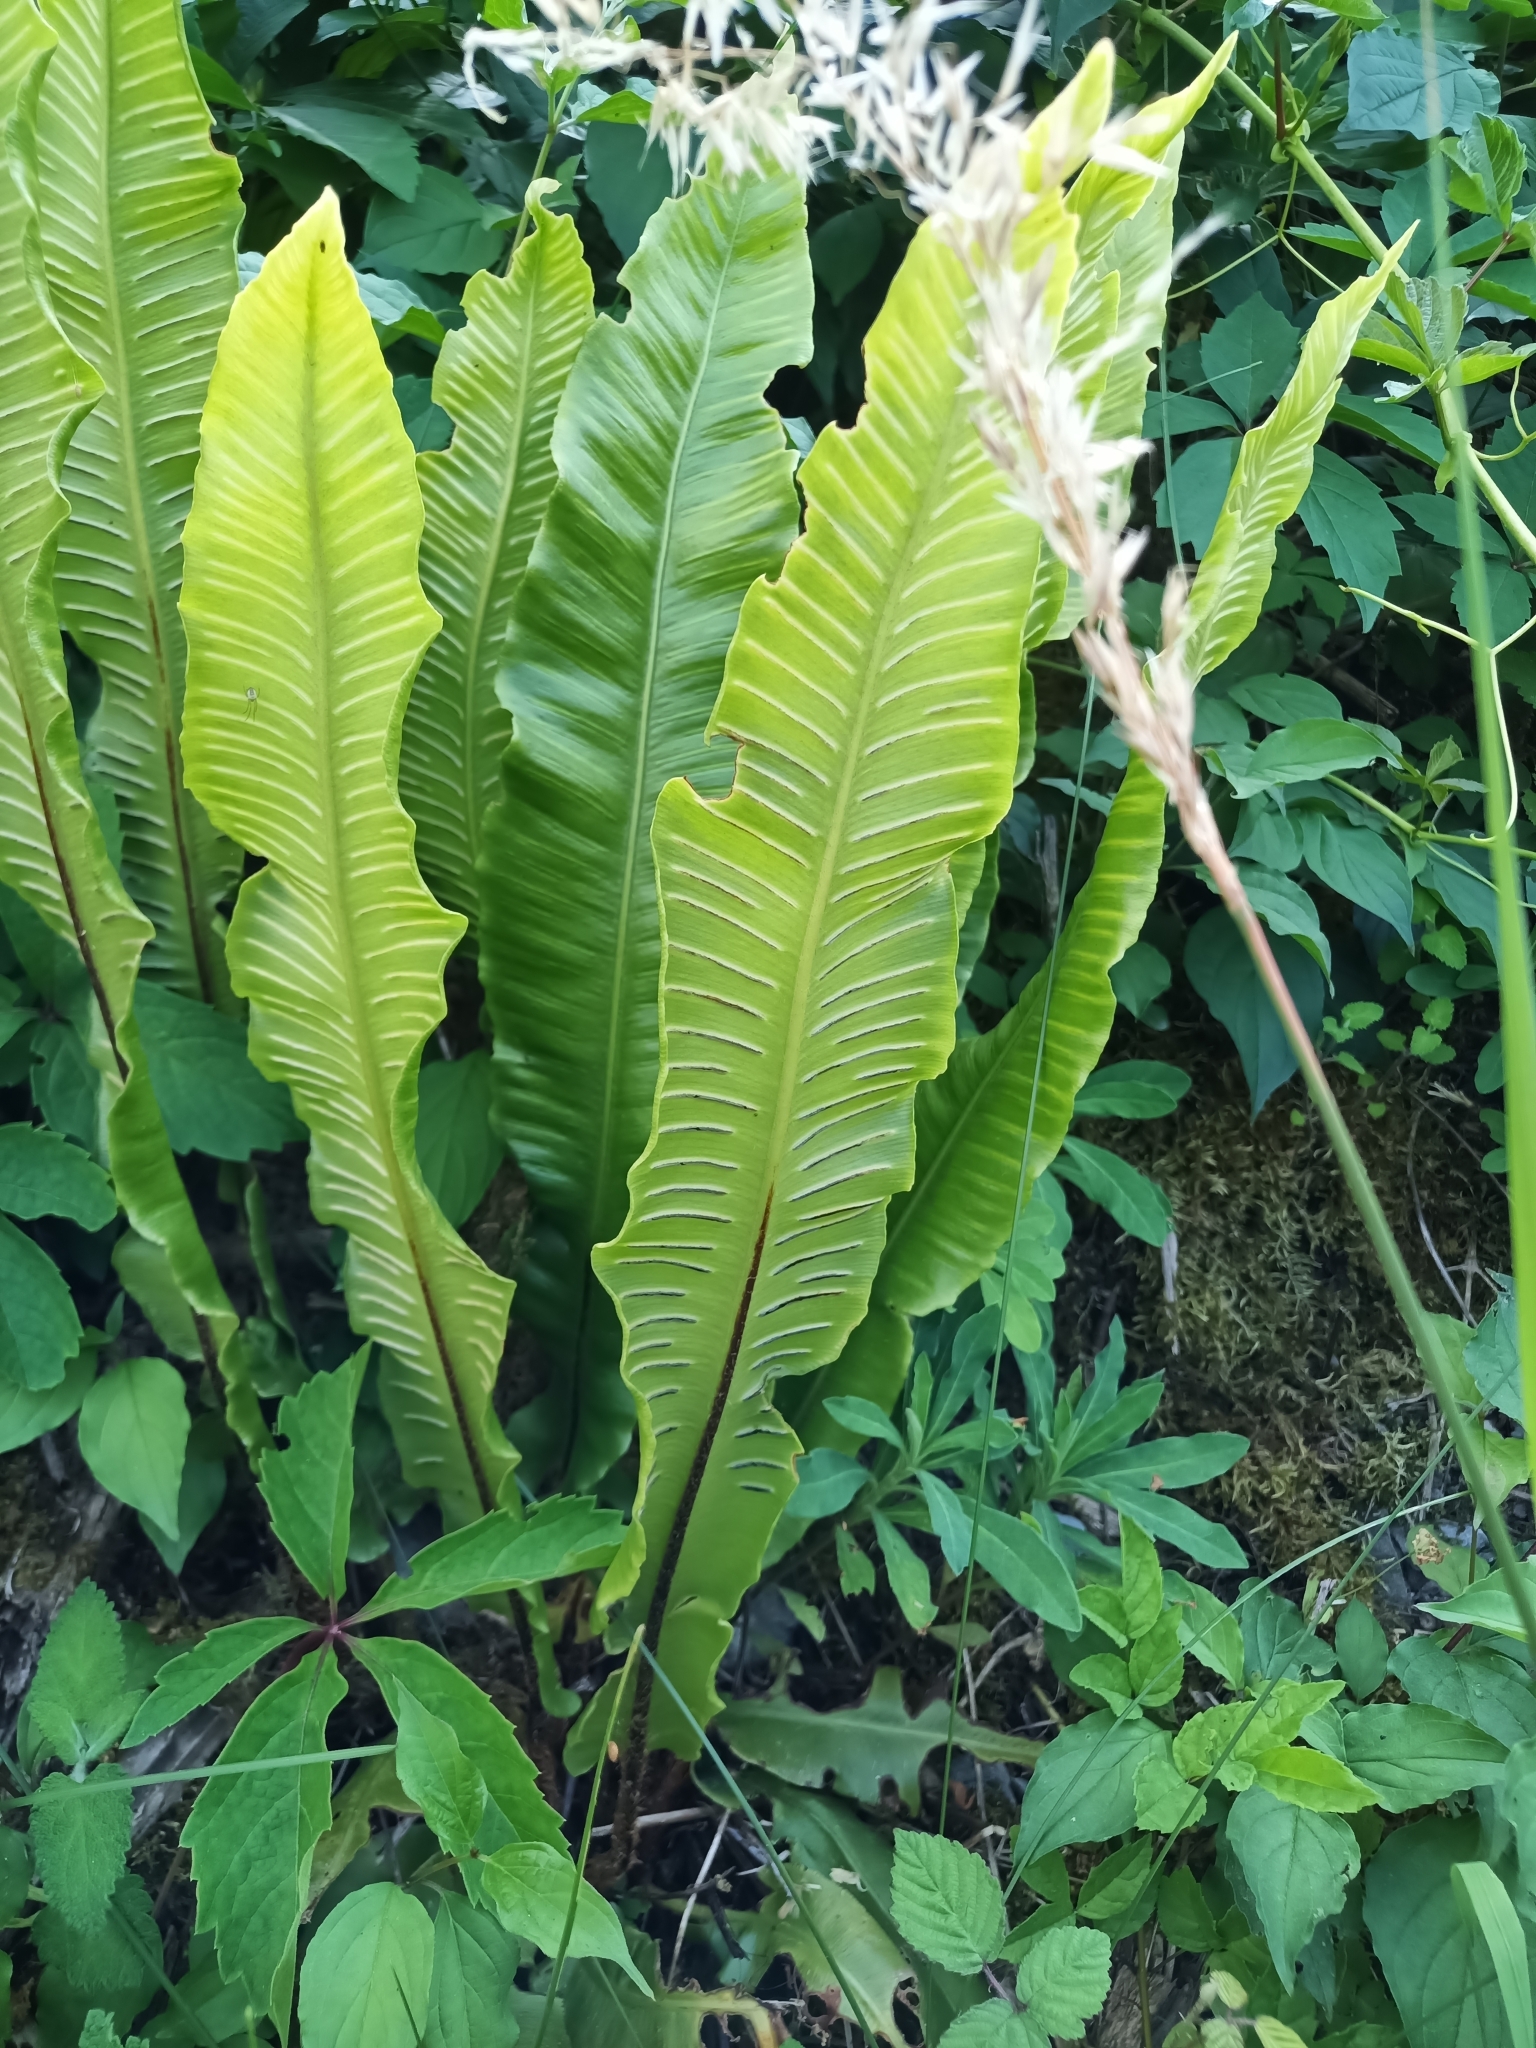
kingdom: Plantae
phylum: Tracheophyta
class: Polypodiopsida
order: Polypodiales
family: Aspleniaceae
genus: Asplenium
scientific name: Asplenium scolopendrium
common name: Hart's-tongue fern
